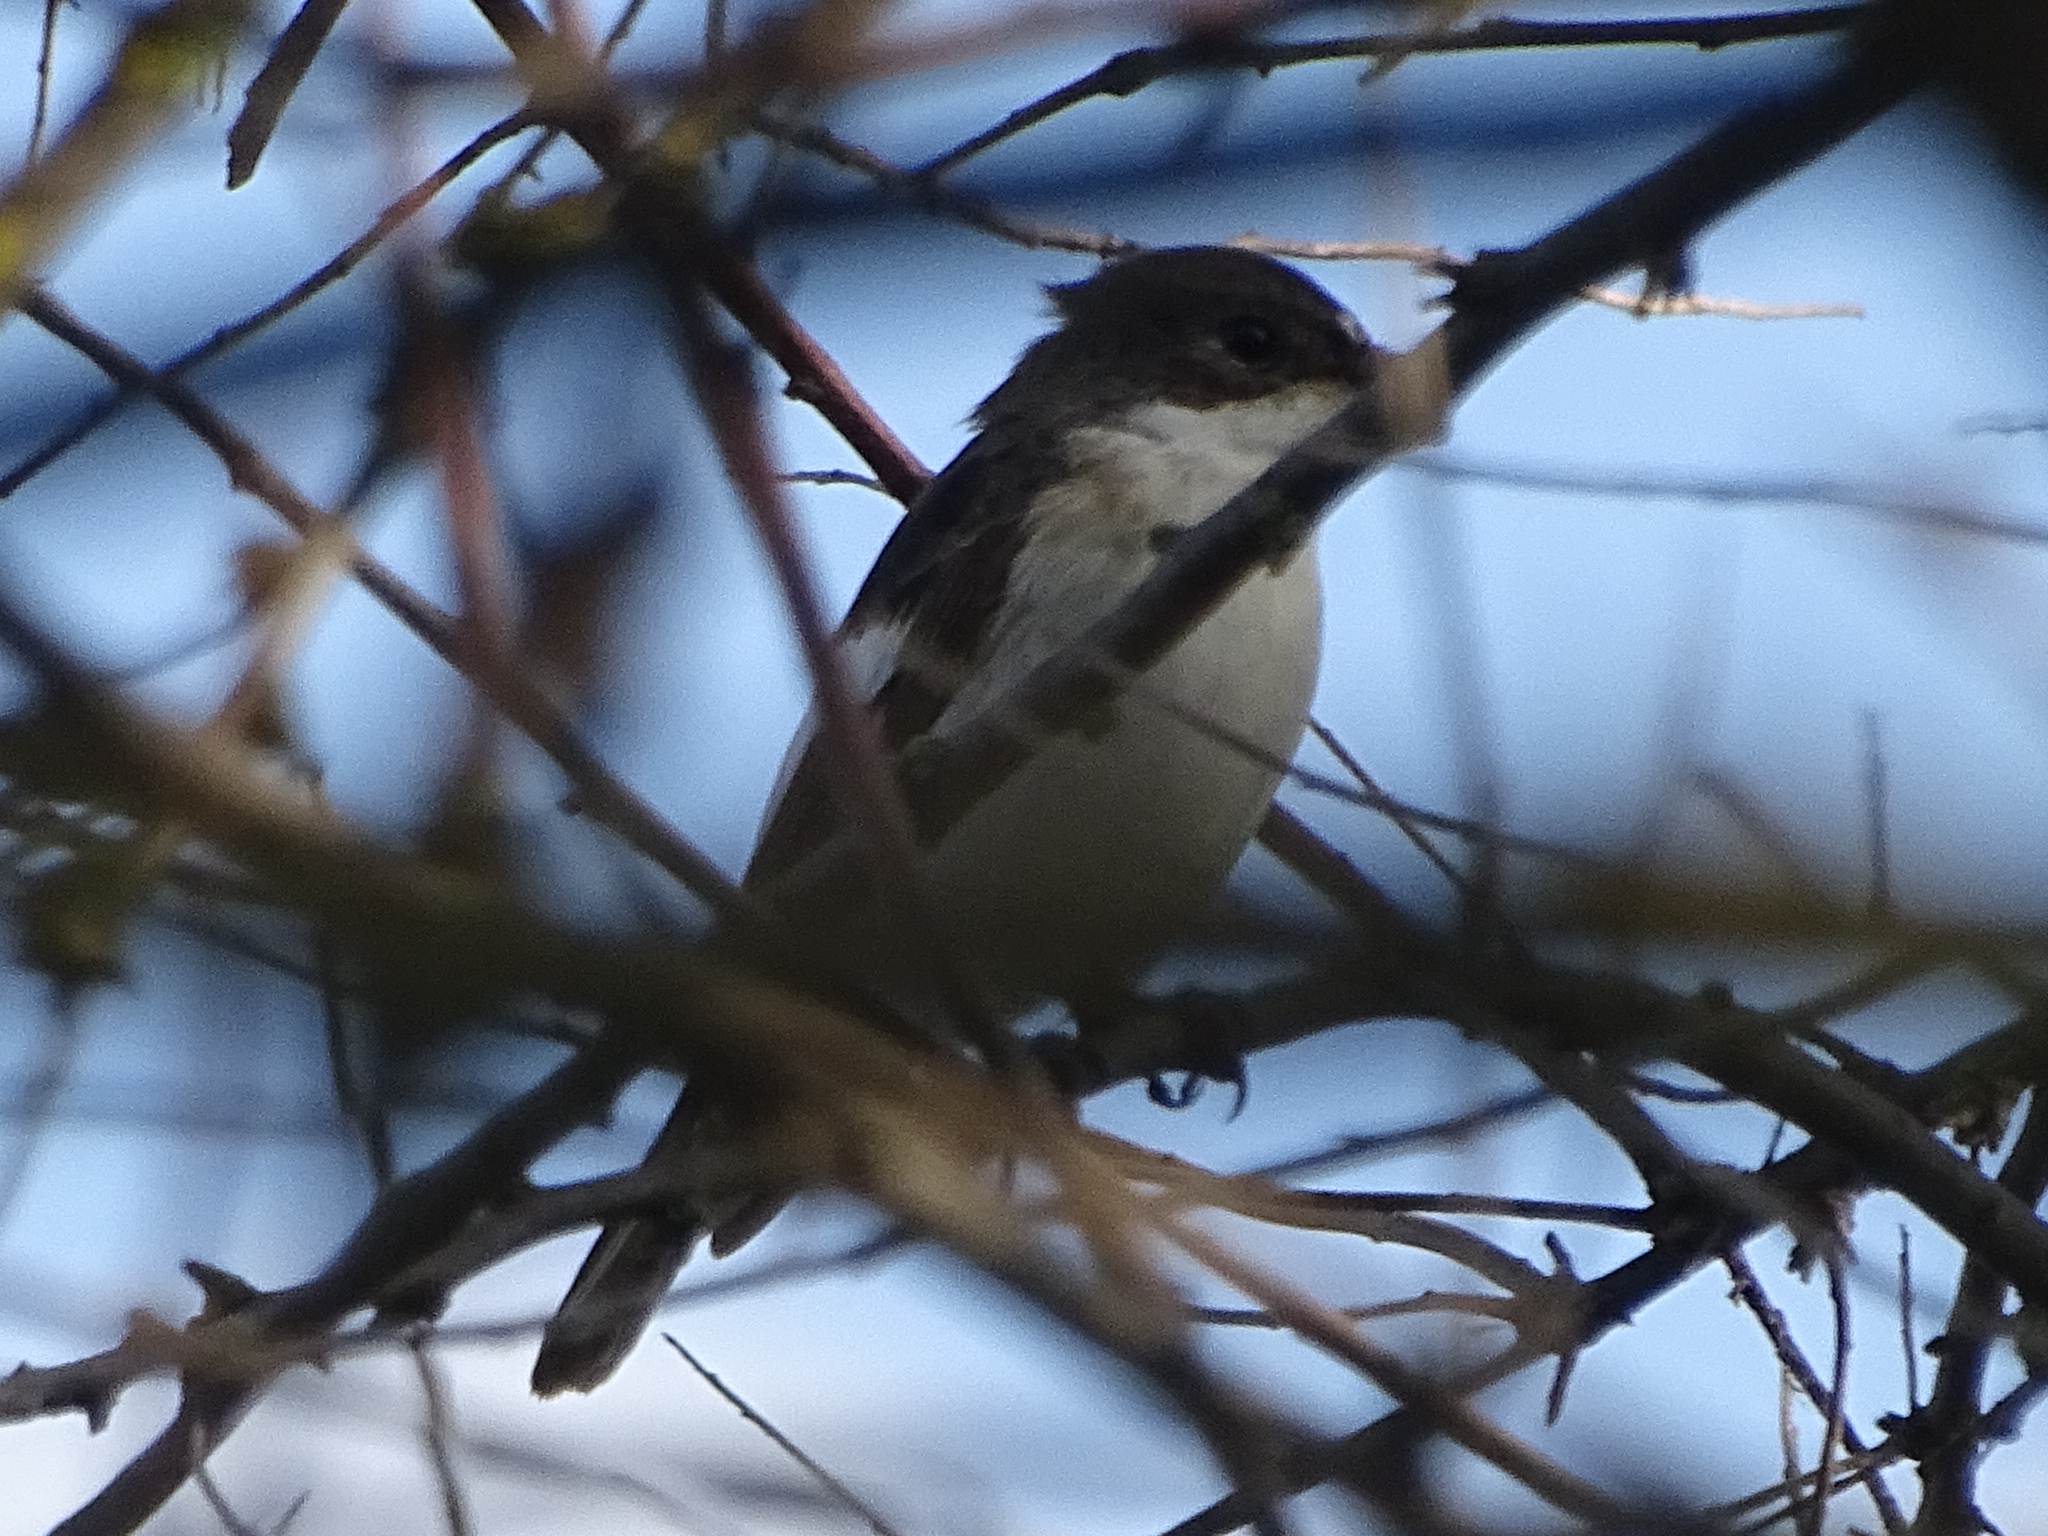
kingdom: Animalia
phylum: Chordata
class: Aves
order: Passeriformes
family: Muscicapidae
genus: Ficedula
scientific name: Ficedula hypoleuca
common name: European pied flycatcher
